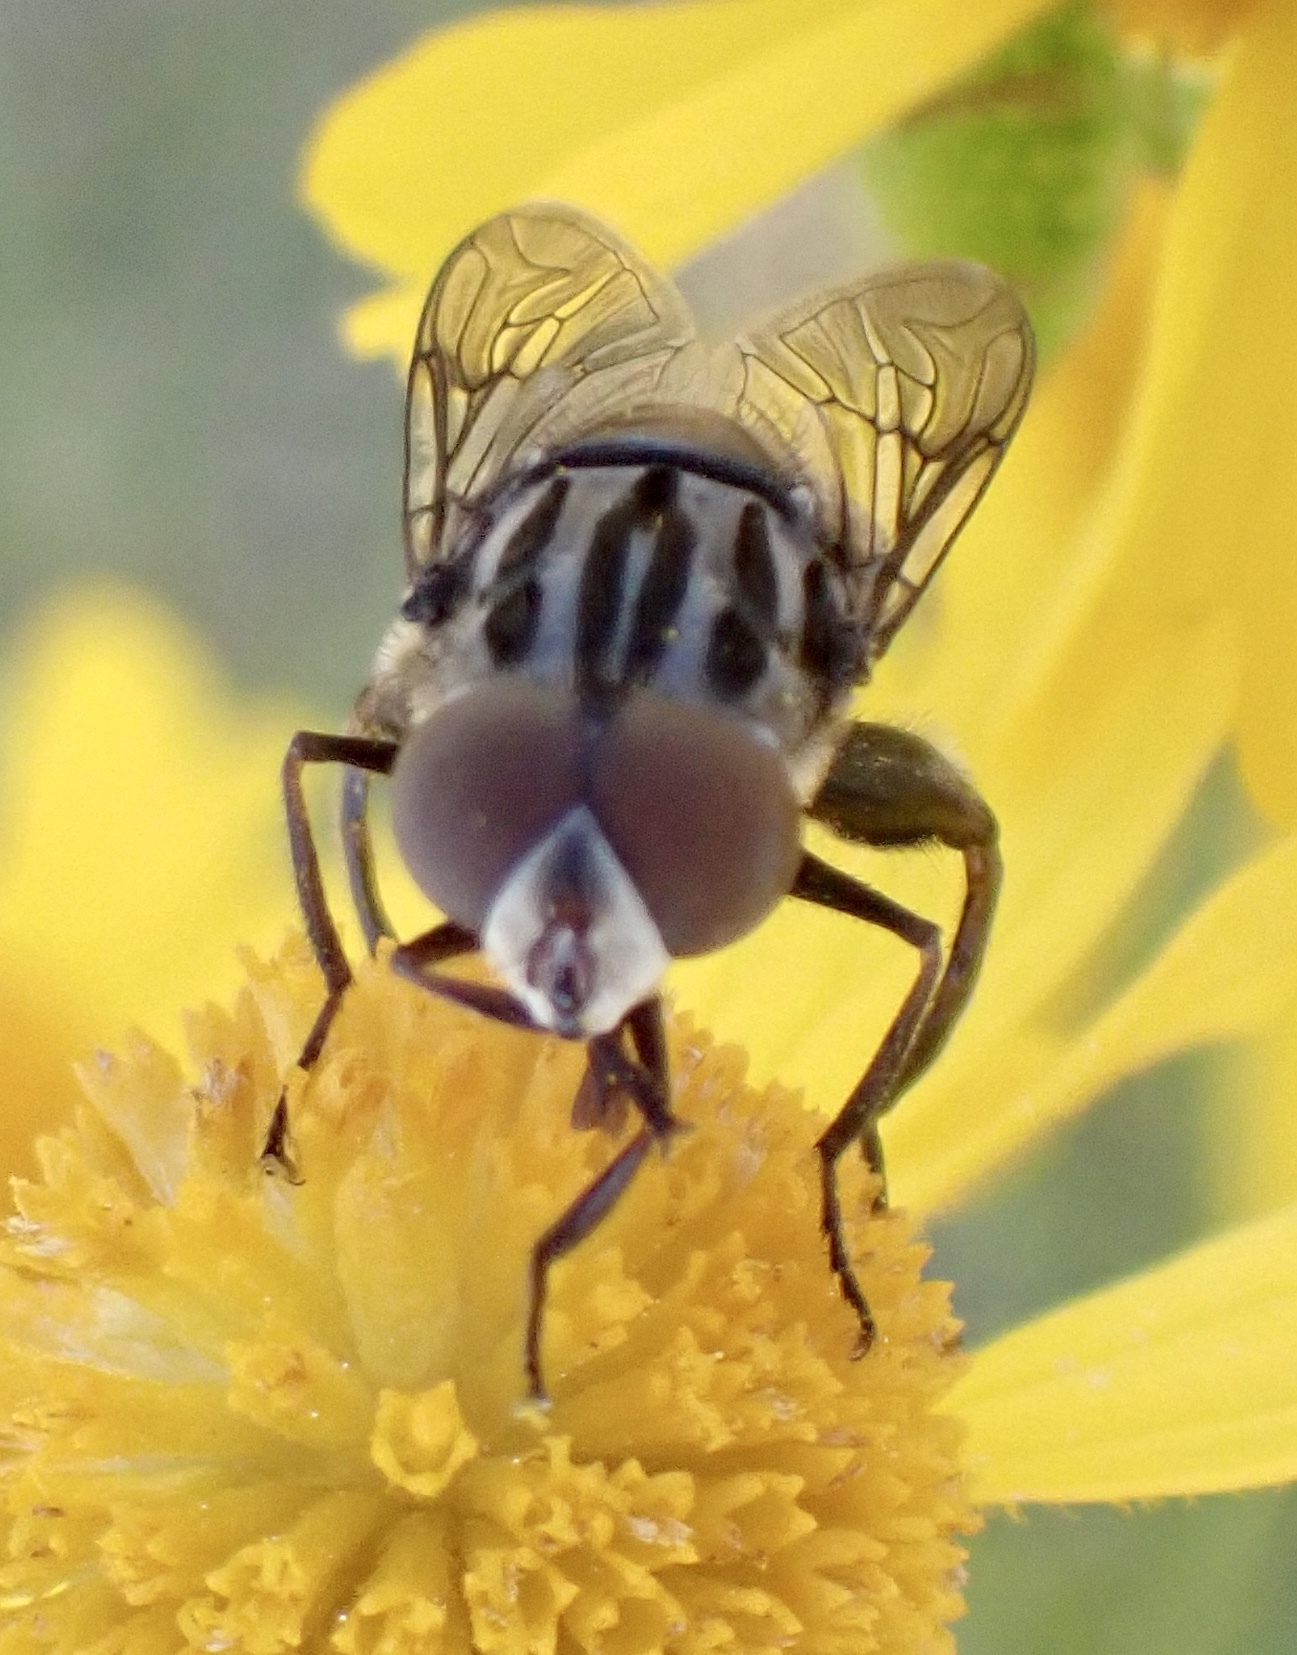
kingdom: Animalia
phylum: Arthropoda
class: Insecta
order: Diptera
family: Syrphidae
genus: Palpada
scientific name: Palpada furcata
